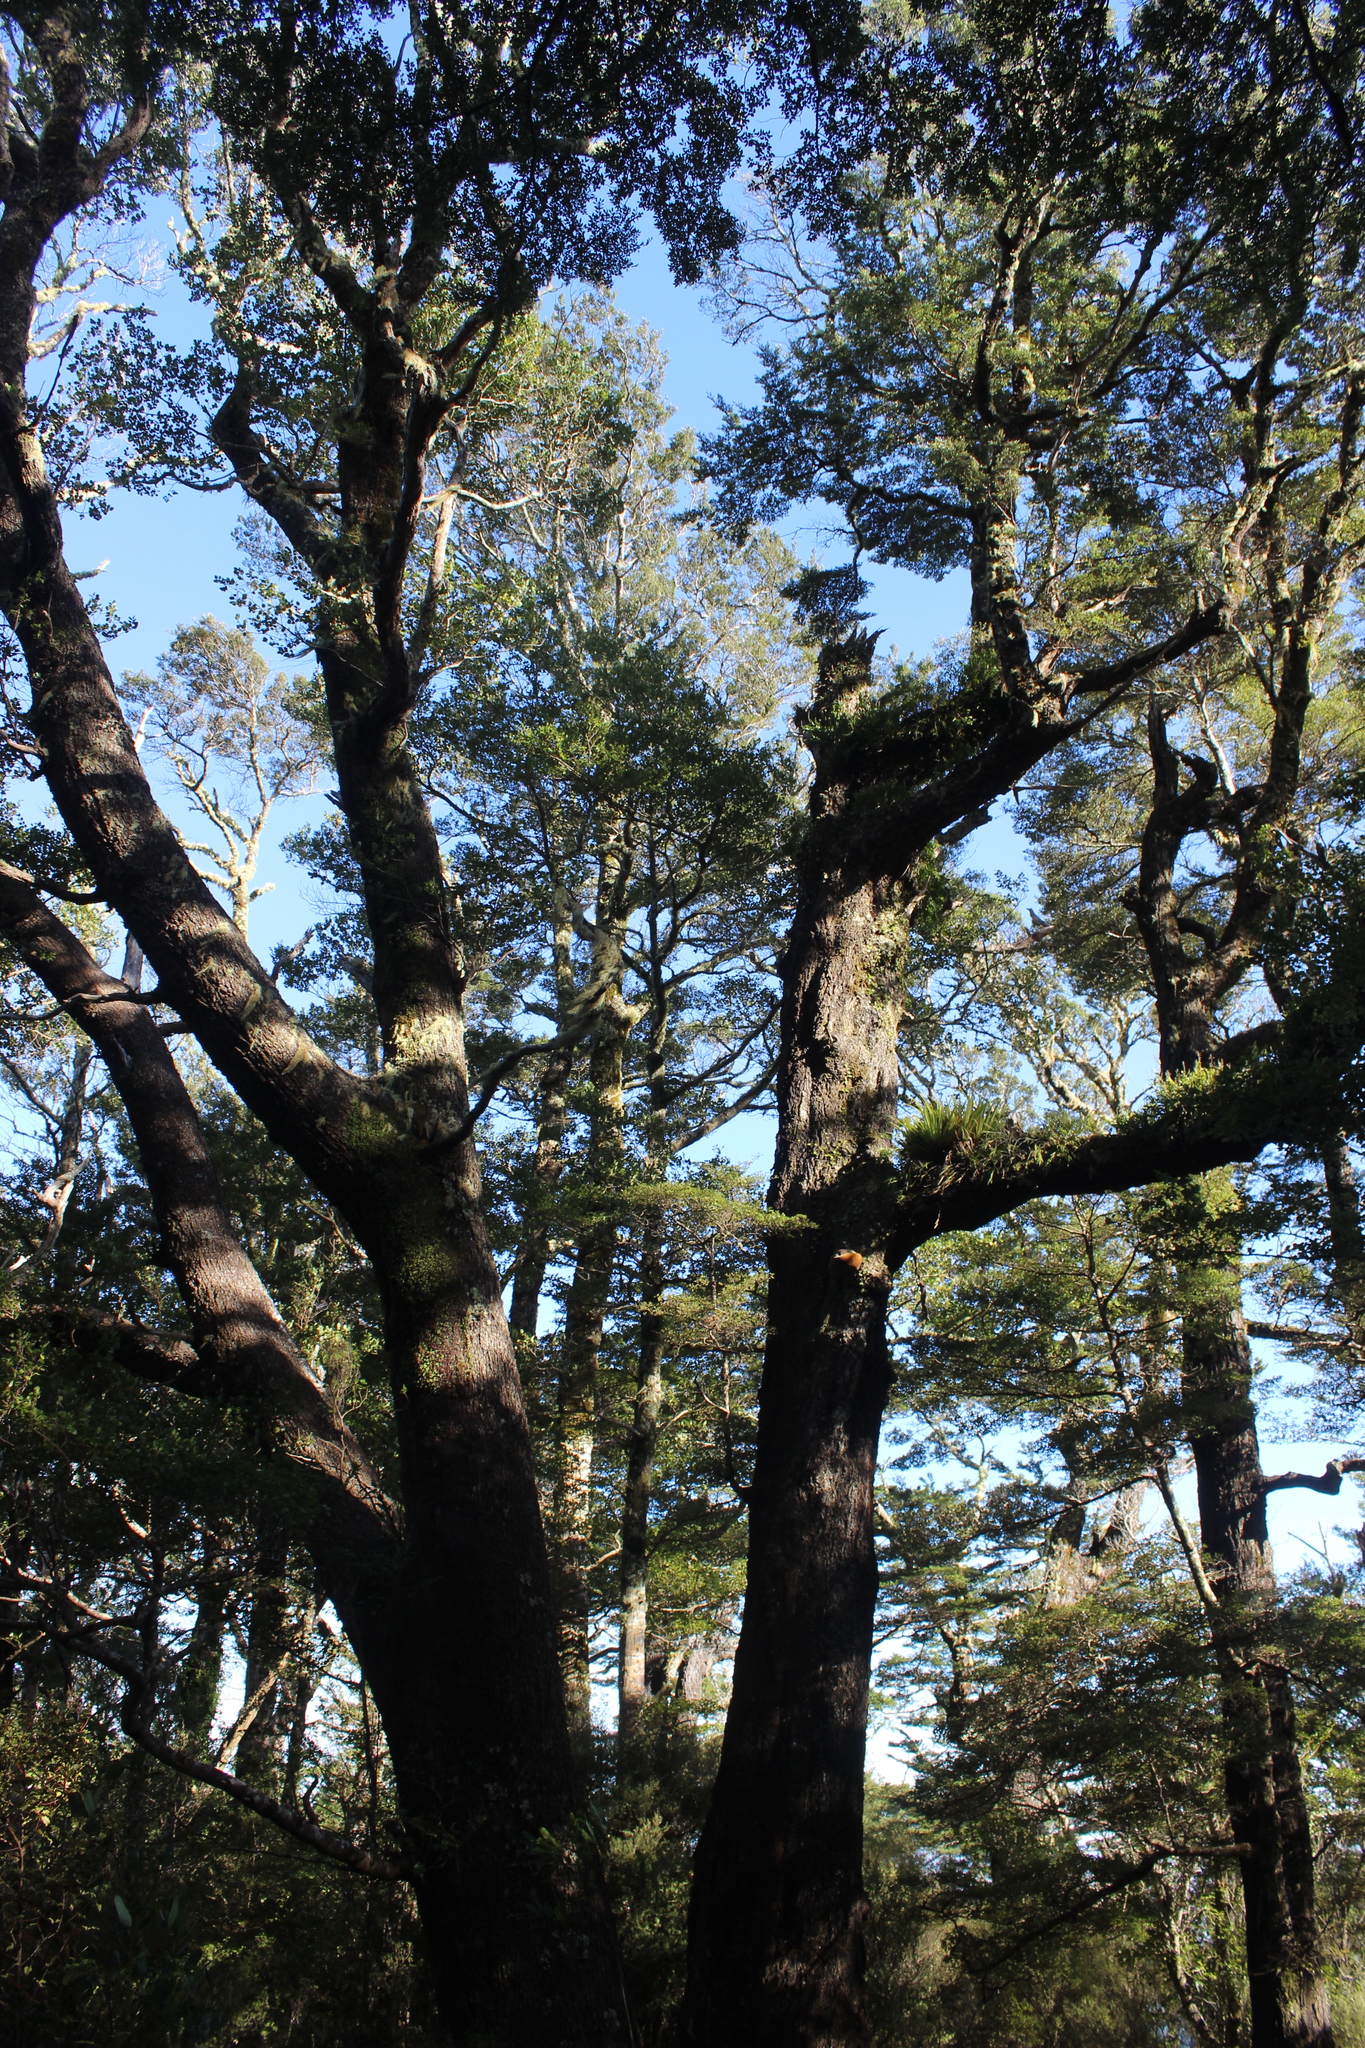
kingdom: Plantae
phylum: Tracheophyta
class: Magnoliopsida
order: Fagales
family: Nothofagaceae
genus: Nothofagus
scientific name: Nothofagus truncata
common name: Hard beech
